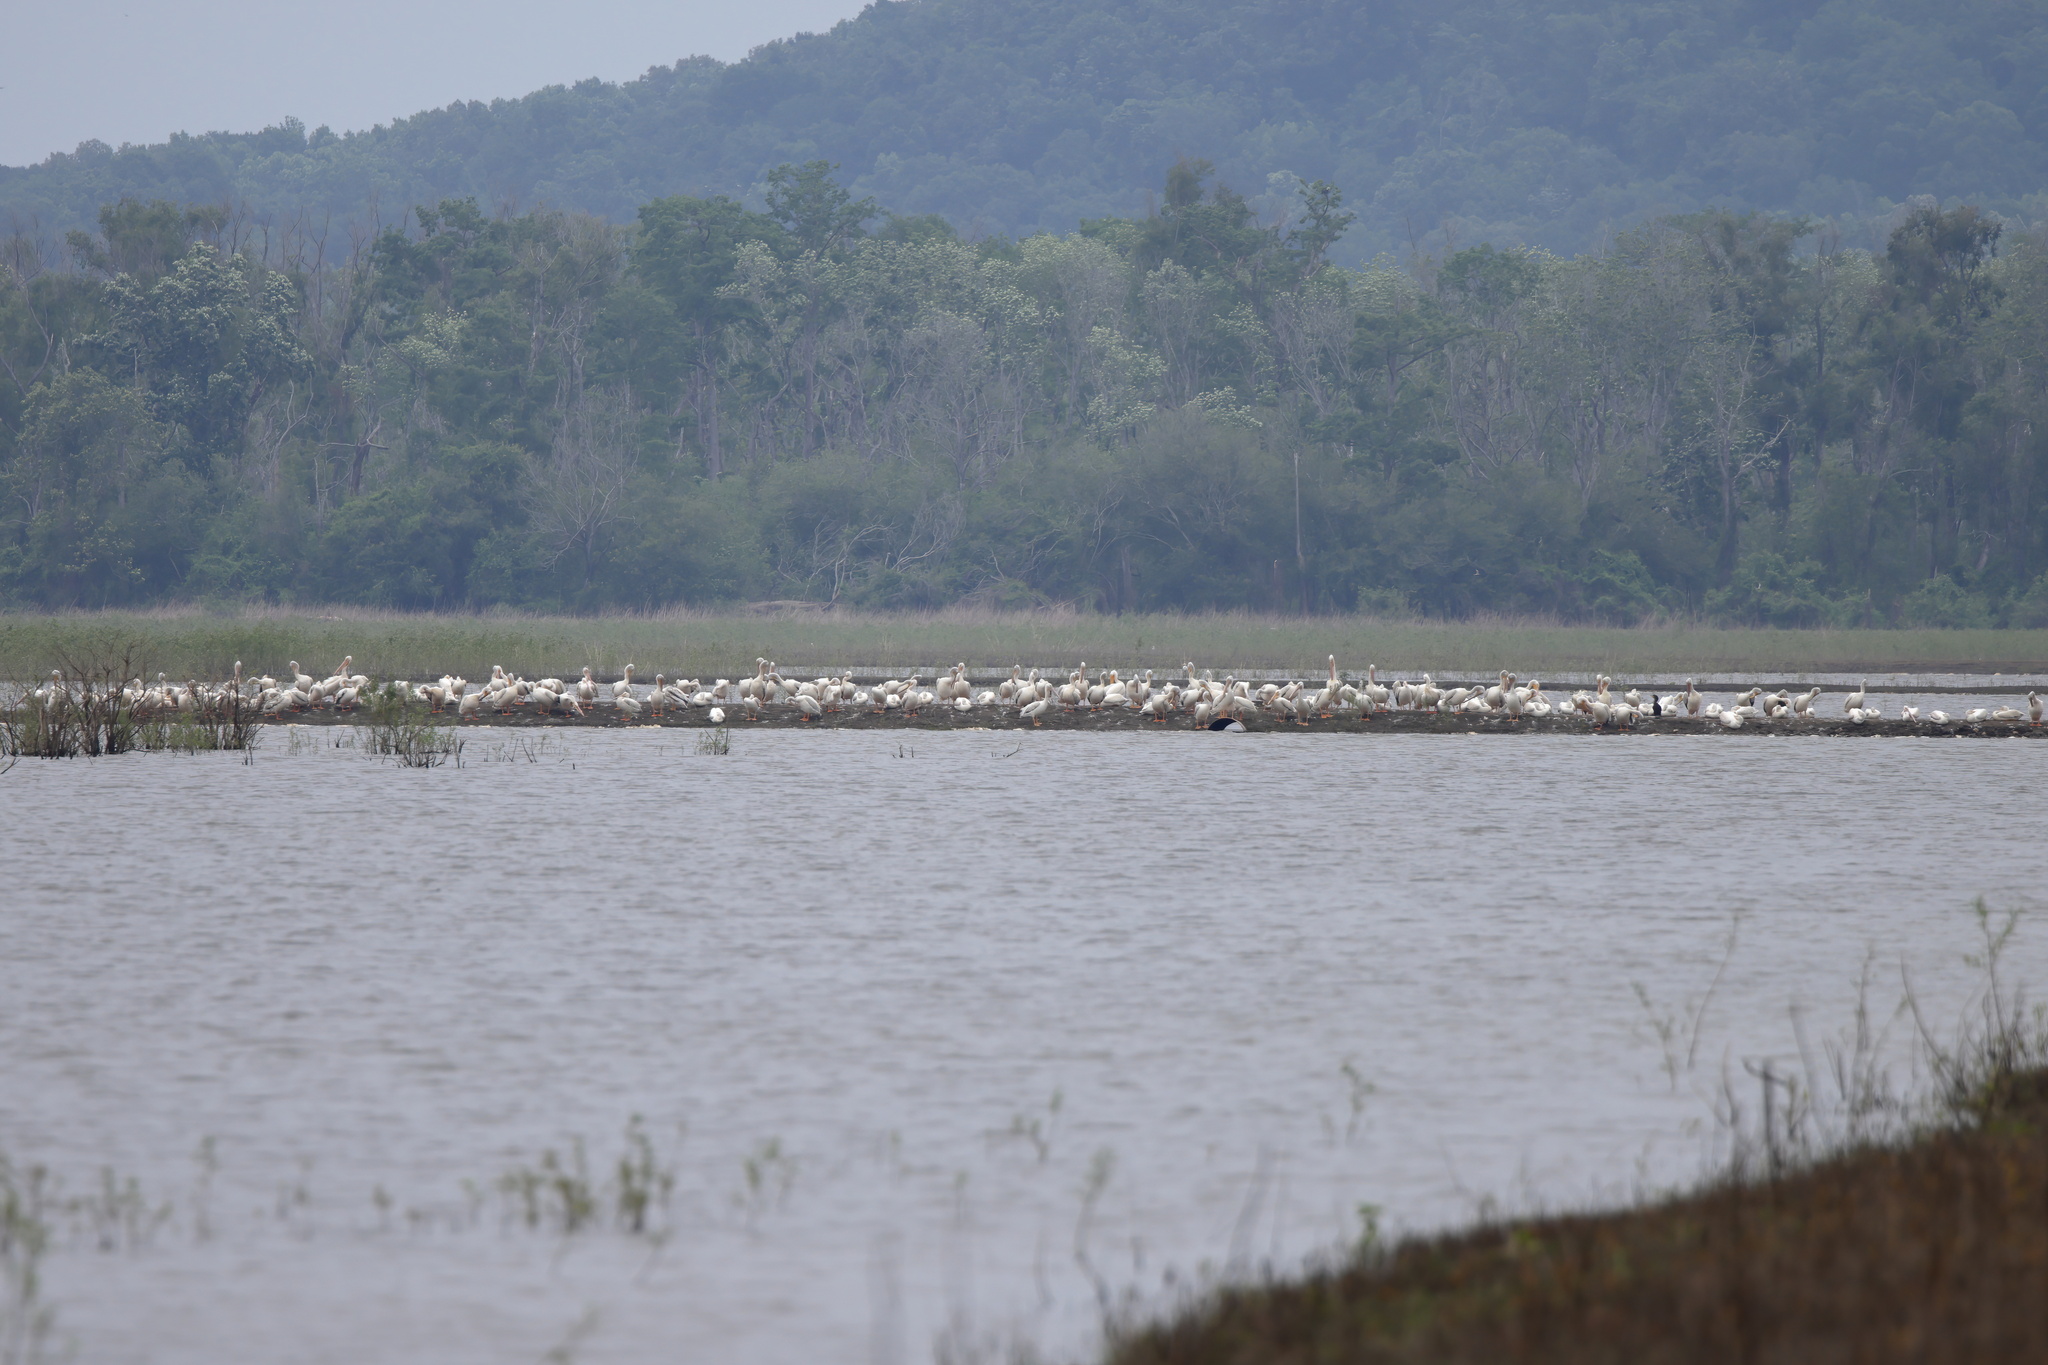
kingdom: Animalia
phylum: Chordata
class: Aves
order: Pelecaniformes
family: Pelecanidae
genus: Pelecanus
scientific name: Pelecanus erythrorhynchos
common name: American white pelican
